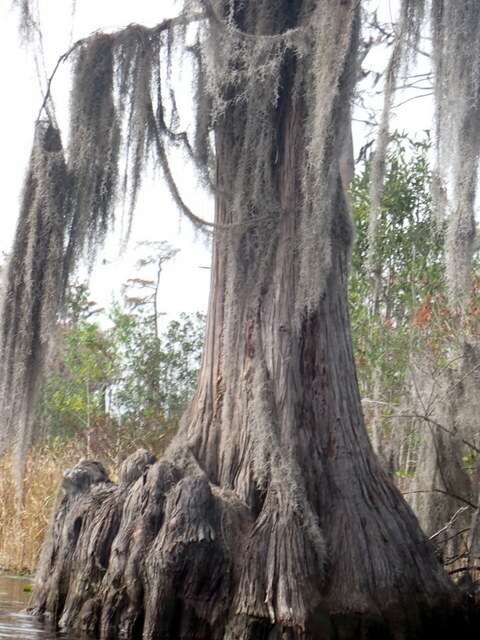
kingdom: Plantae
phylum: Tracheophyta
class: Pinopsida
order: Pinales
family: Cupressaceae
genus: Taxodium
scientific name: Taxodium distichum
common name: Bald cypress
